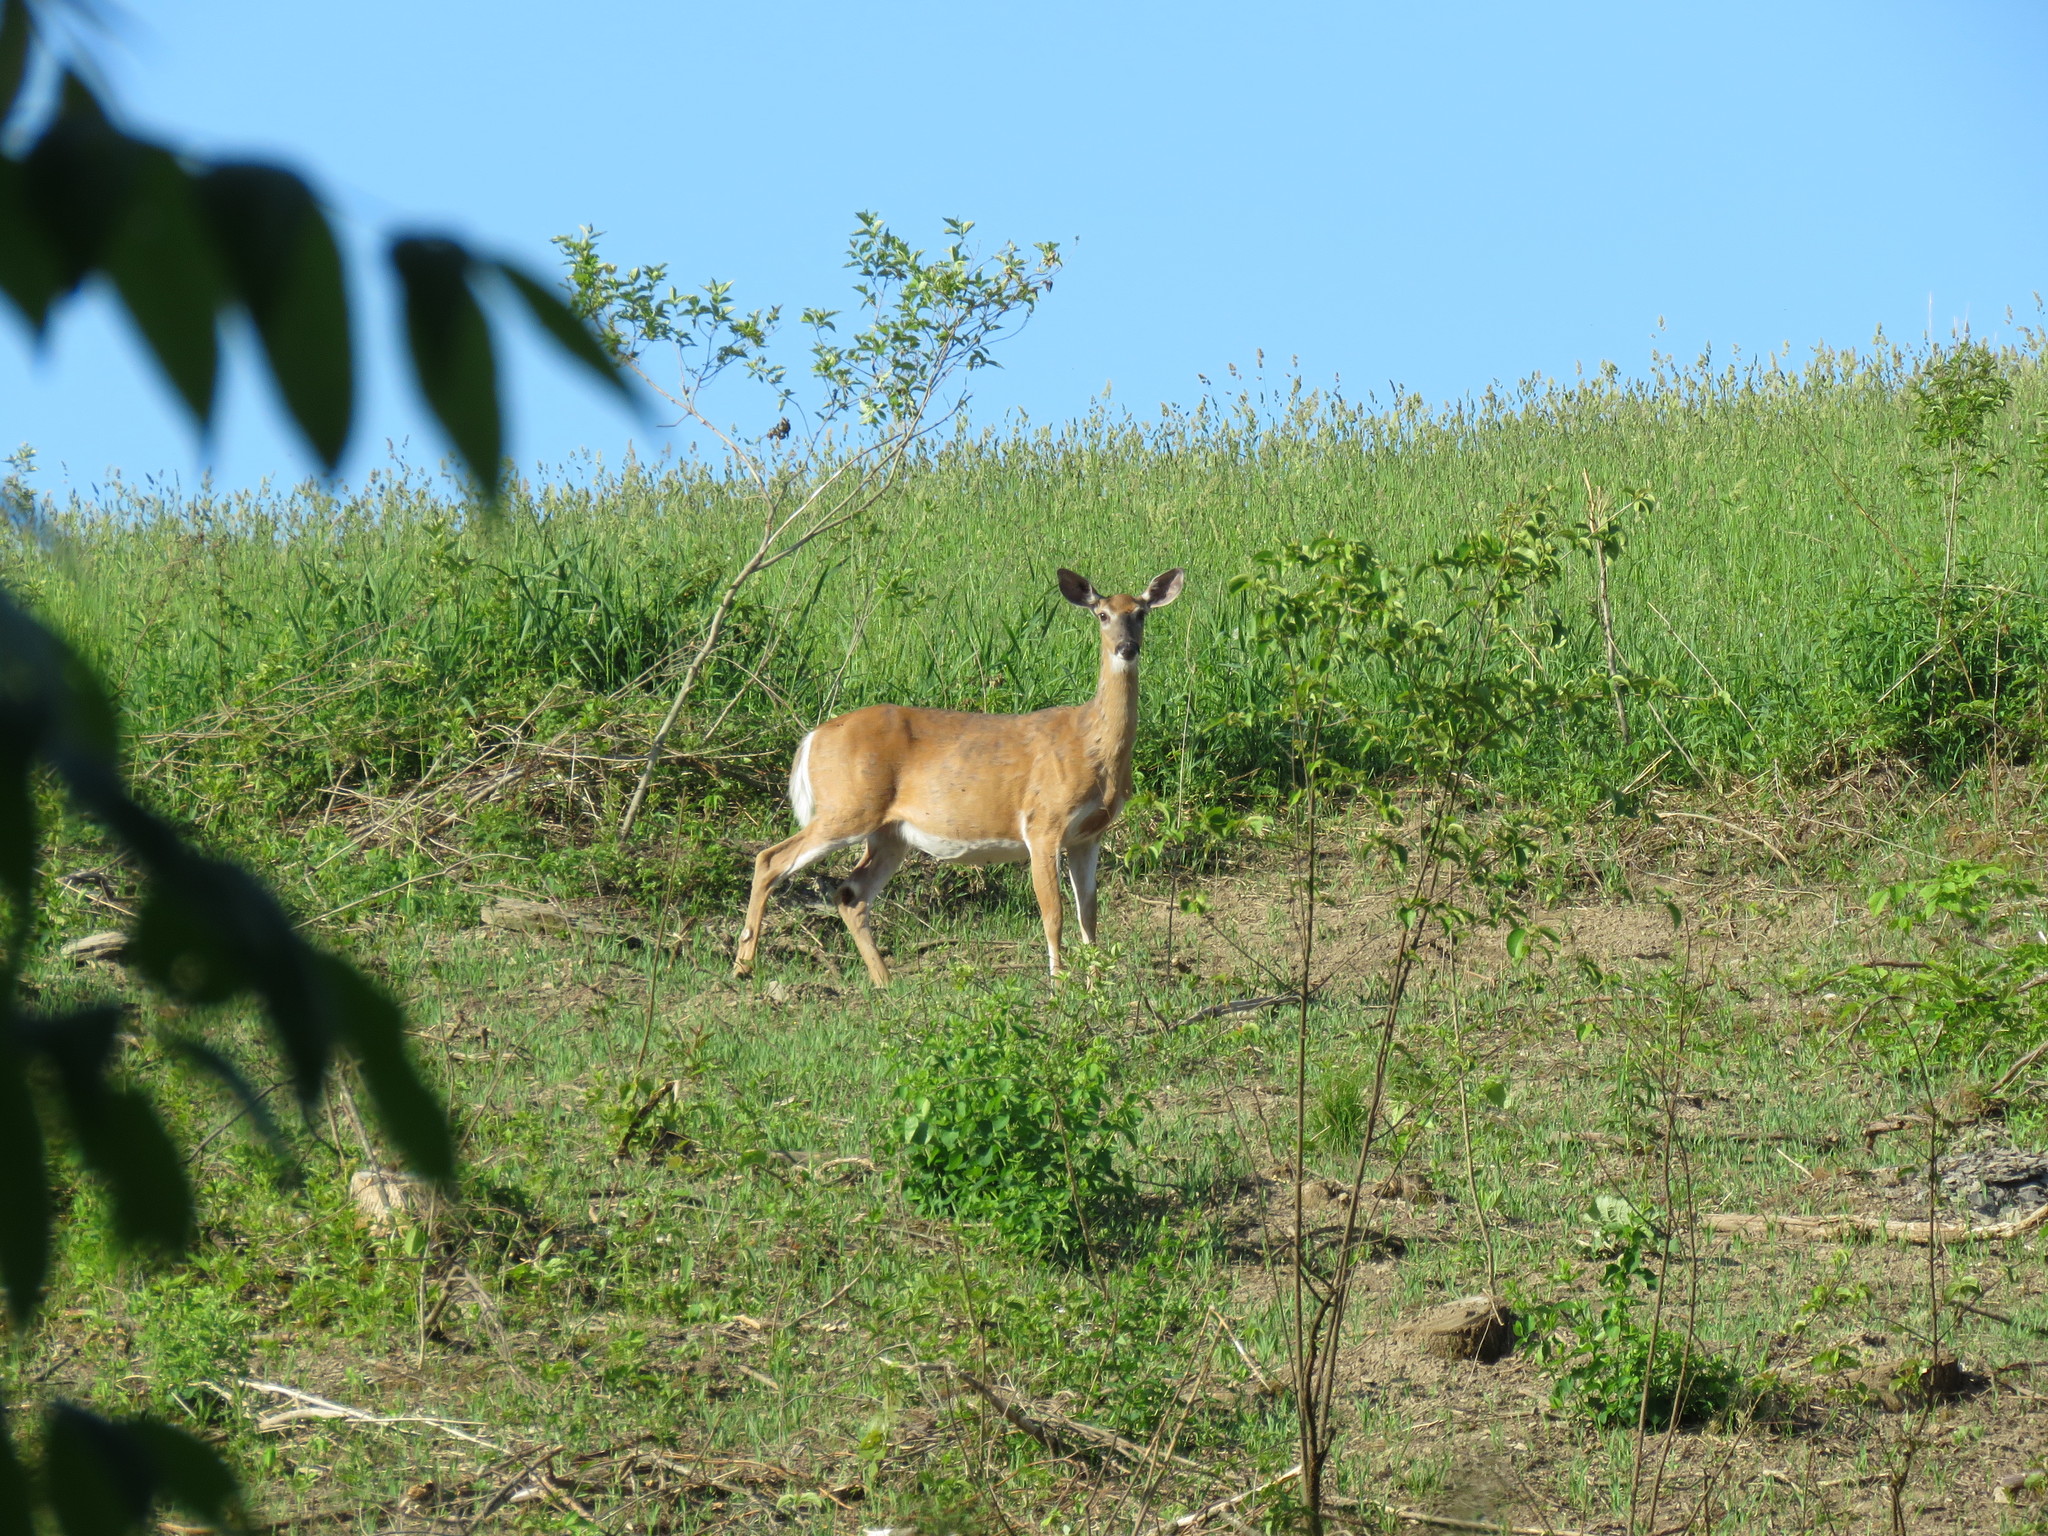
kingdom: Animalia
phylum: Chordata
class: Mammalia
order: Artiodactyla
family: Cervidae
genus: Odocoileus
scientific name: Odocoileus virginianus
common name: White-tailed deer
